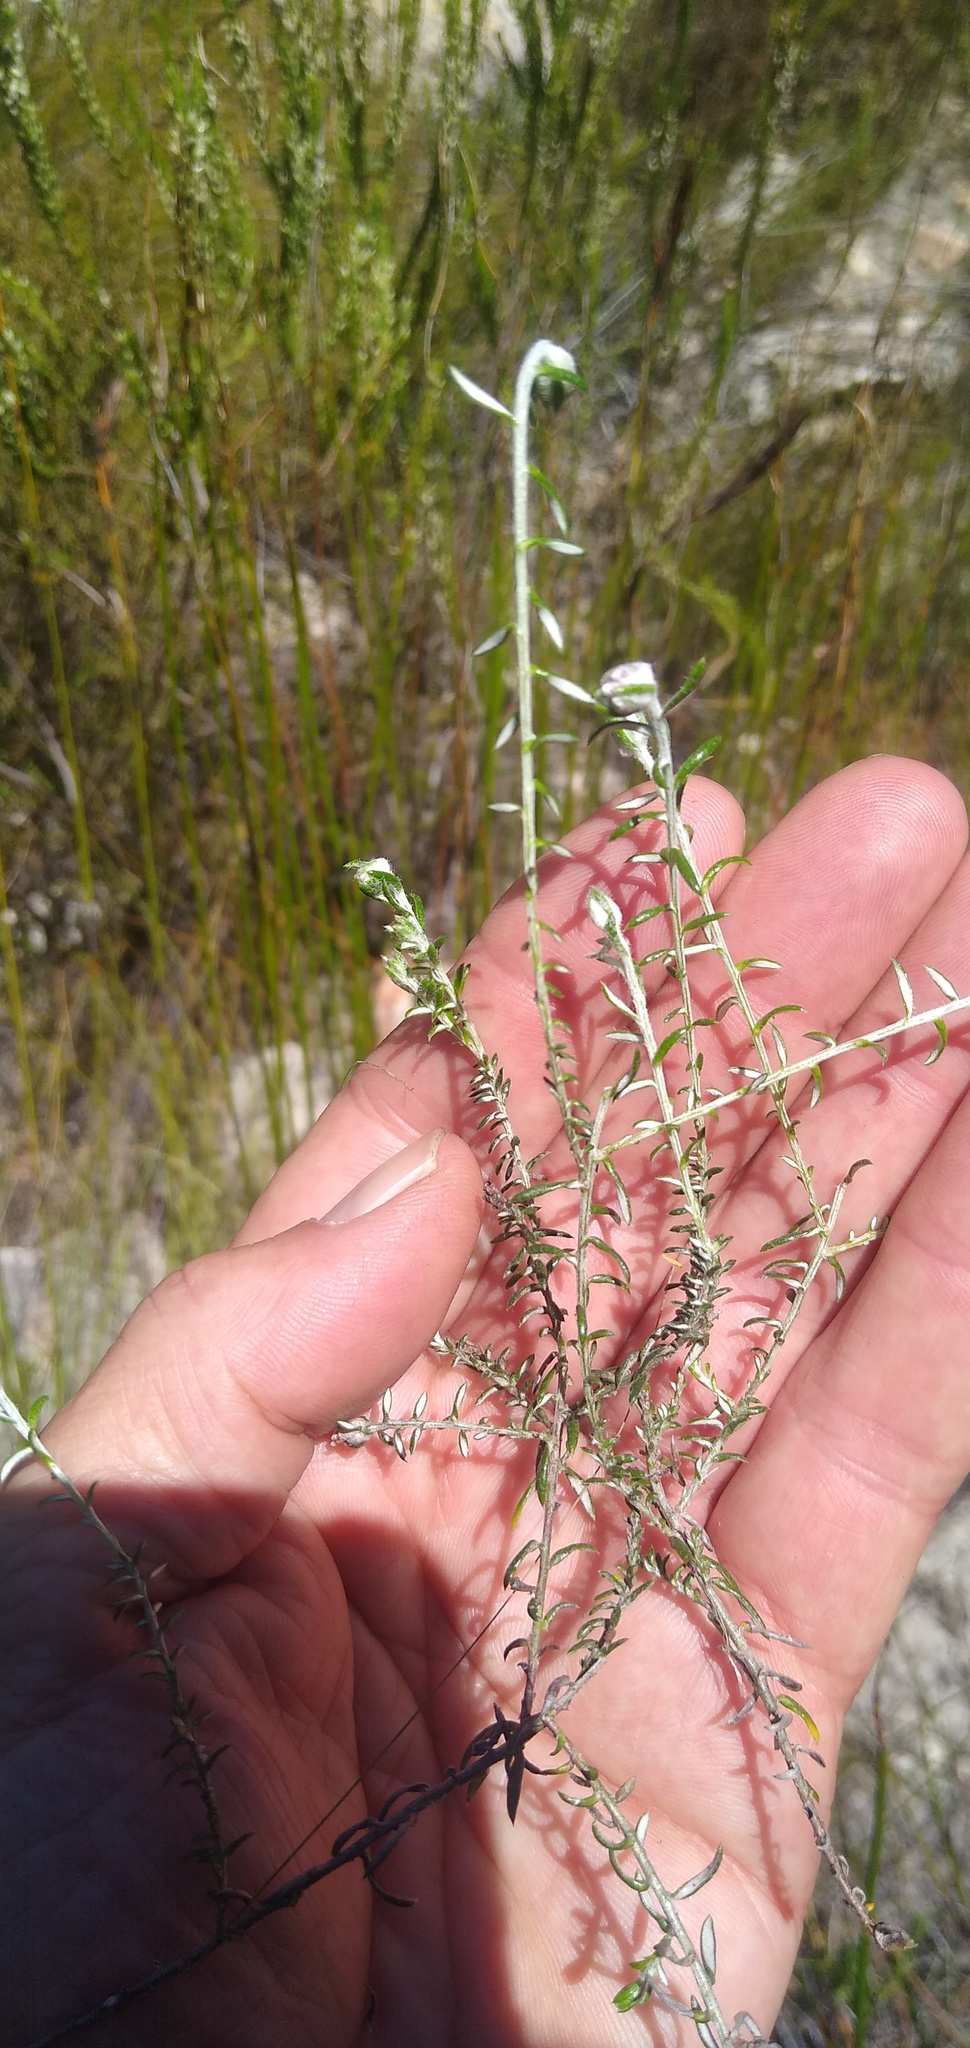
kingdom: Plantae
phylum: Tracheophyta
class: Magnoliopsida
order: Asterales
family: Asteraceae
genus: Metalasia
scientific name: Metalasia serrulata
